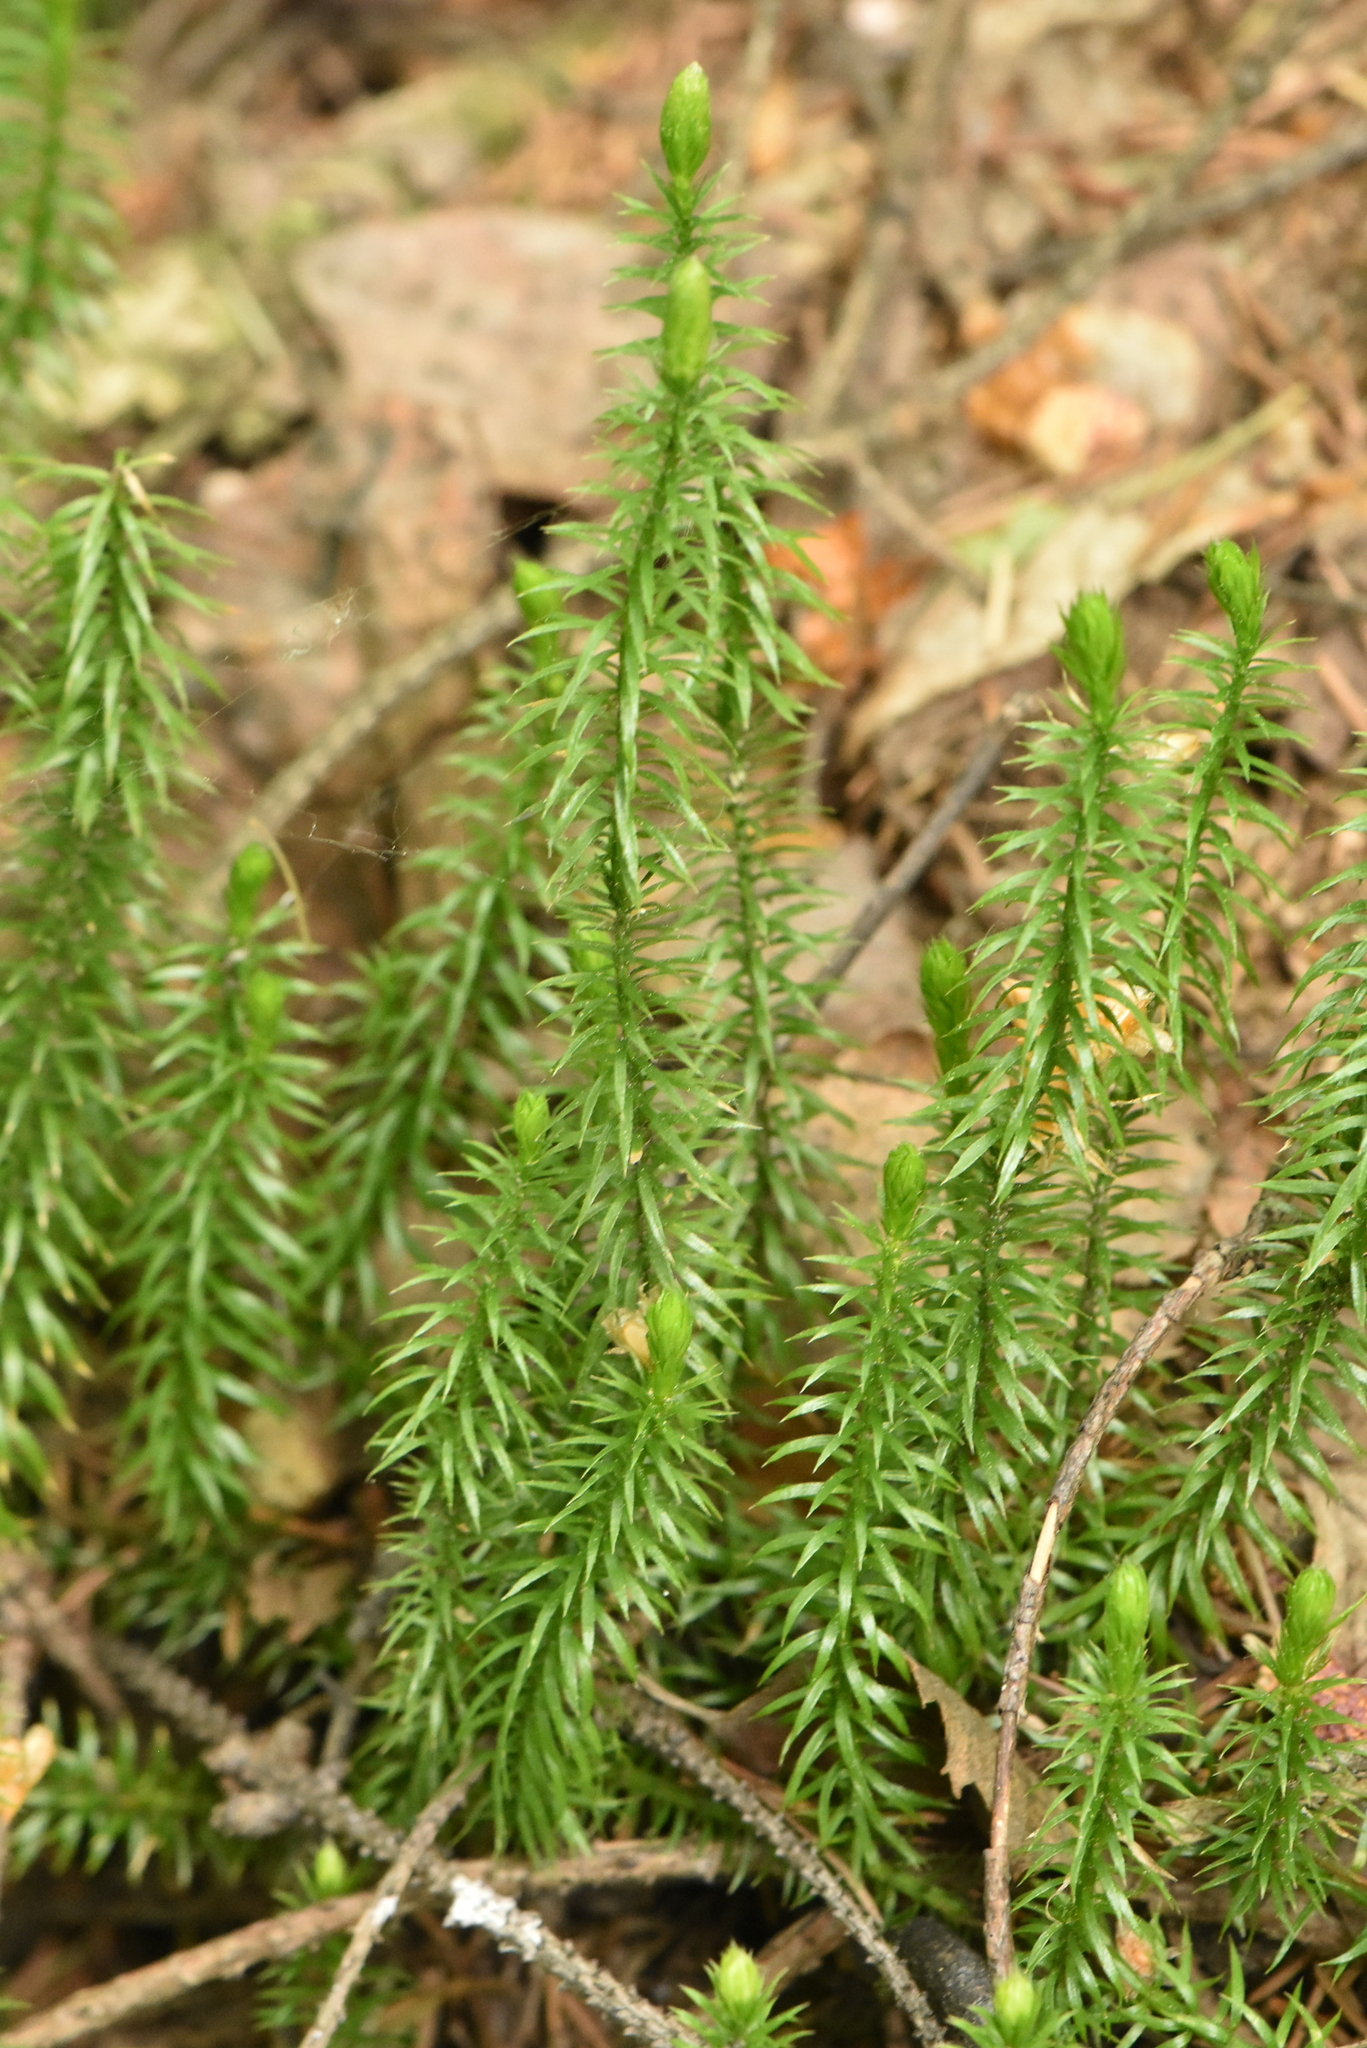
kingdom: Plantae
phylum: Tracheophyta
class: Lycopodiopsida
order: Lycopodiales
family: Lycopodiaceae
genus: Spinulum
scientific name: Spinulum annotinum
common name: Interrupted club-moss
